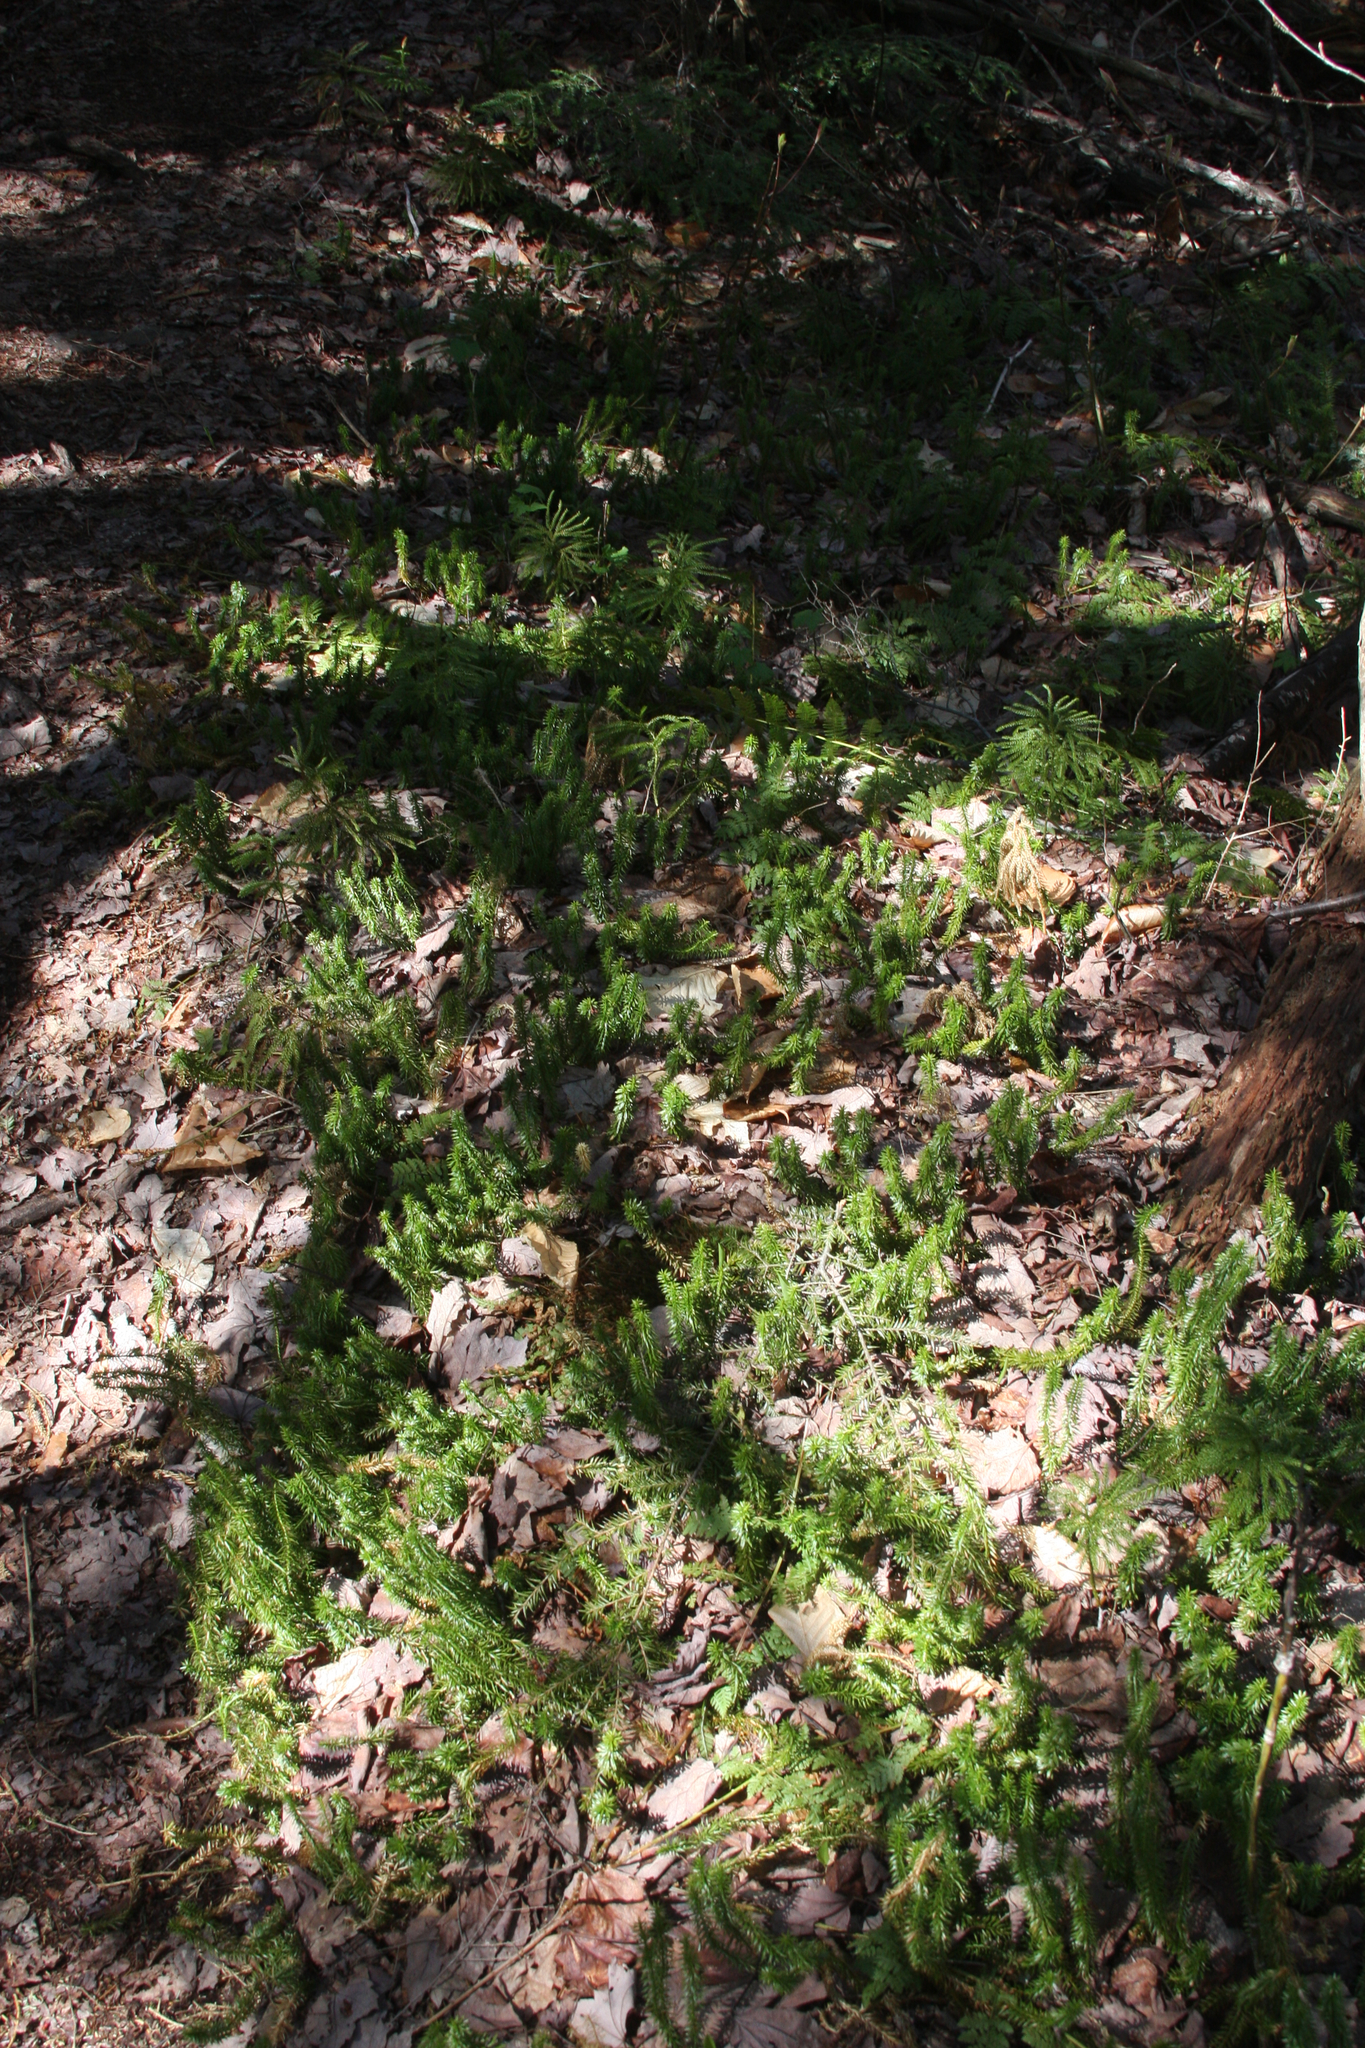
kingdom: Plantae
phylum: Tracheophyta
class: Lycopodiopsida
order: Lycopodiales
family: Lycopodiaceae
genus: Huperzia
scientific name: Huperzia lucidula
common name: Shining clubmoss
